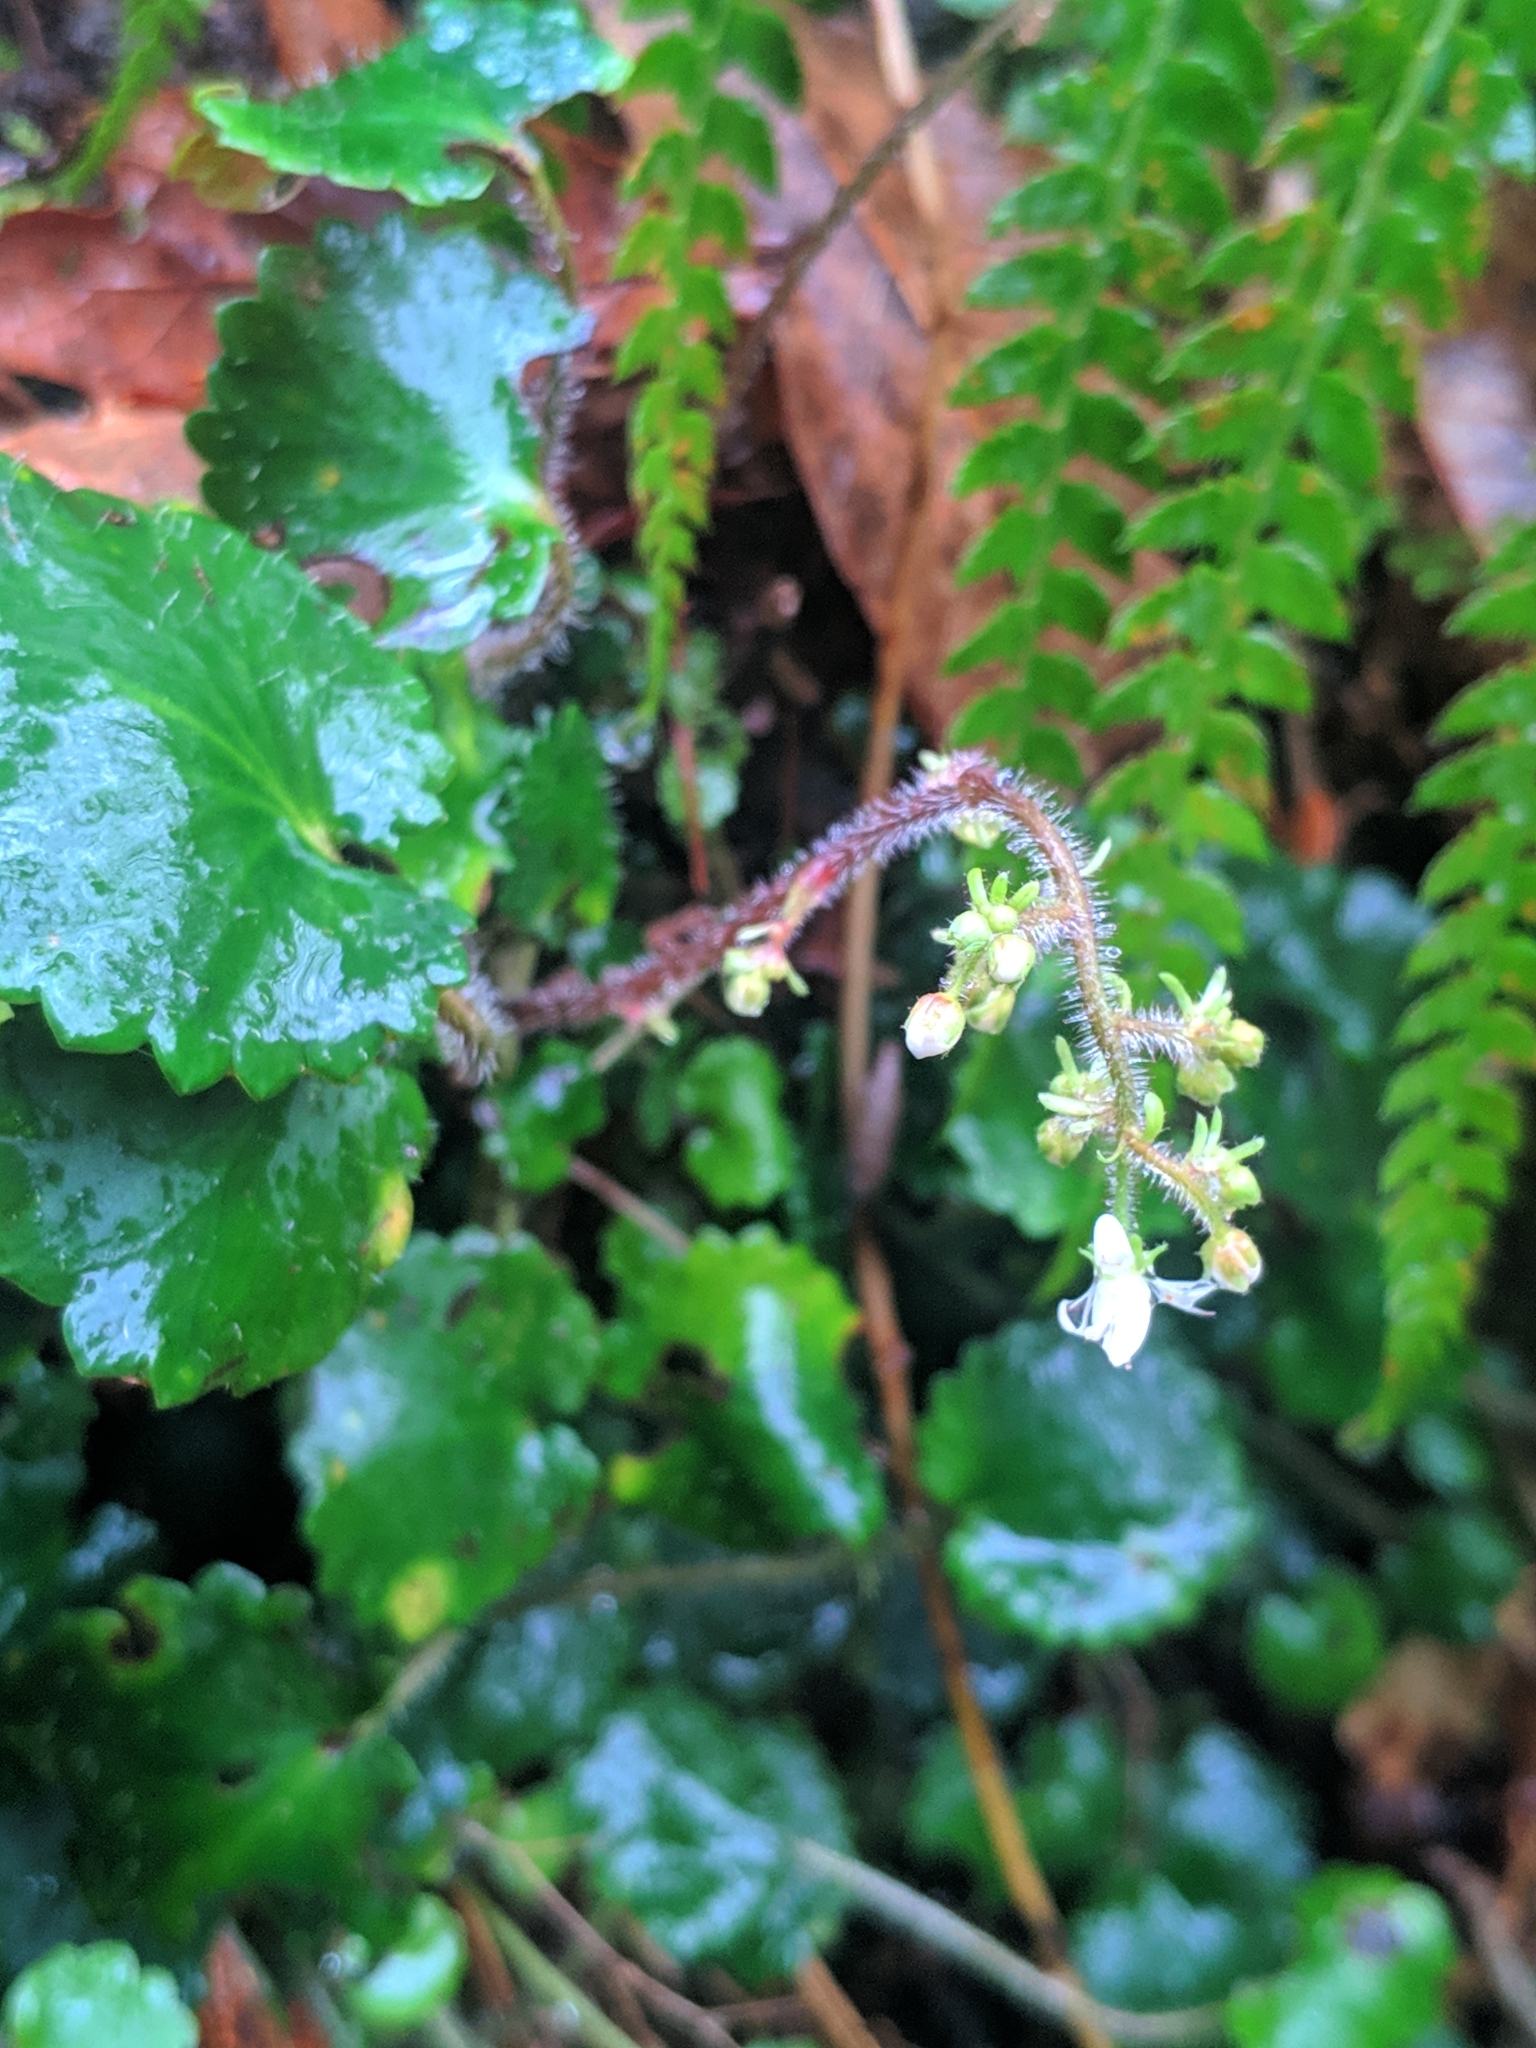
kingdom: Plantae
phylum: Tracheophyta
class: Magnoliopsida
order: Saxifragales
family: Saxifragaceae
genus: Saxifraga
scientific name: Saxifraga hirsuta
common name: Kidney saxifrage
